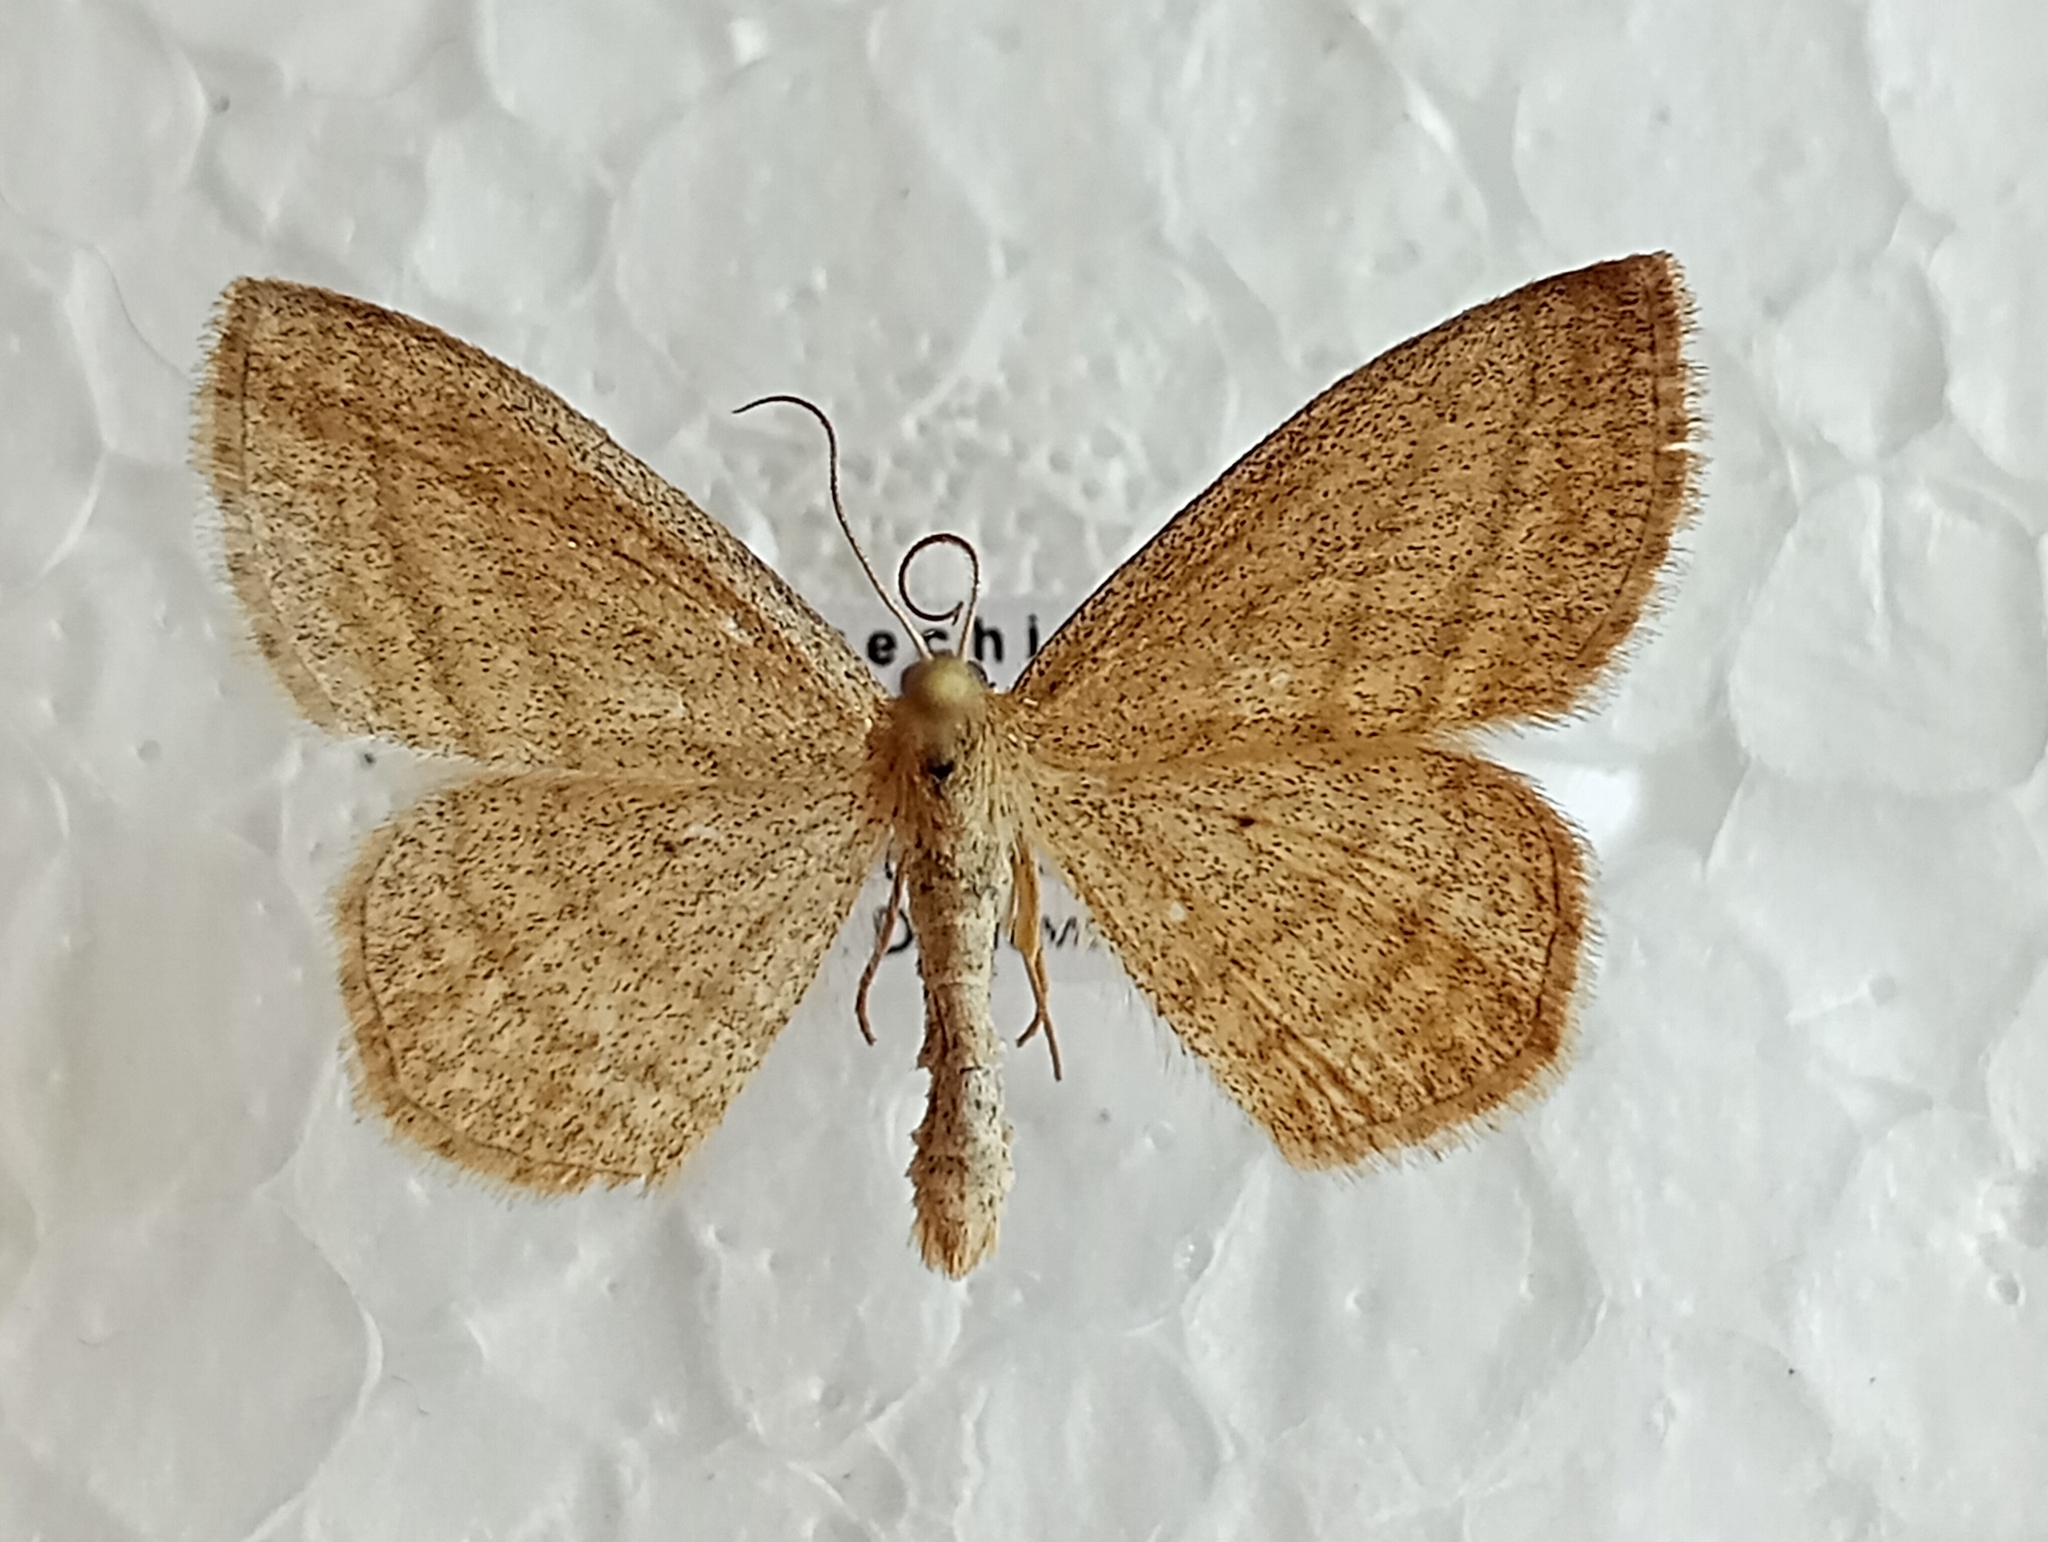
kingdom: Animalia
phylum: Arthropoda
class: Insecta
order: Lepidoptera
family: Geometridae
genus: Scopula
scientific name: Scopula virgulata
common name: Streaked wave
